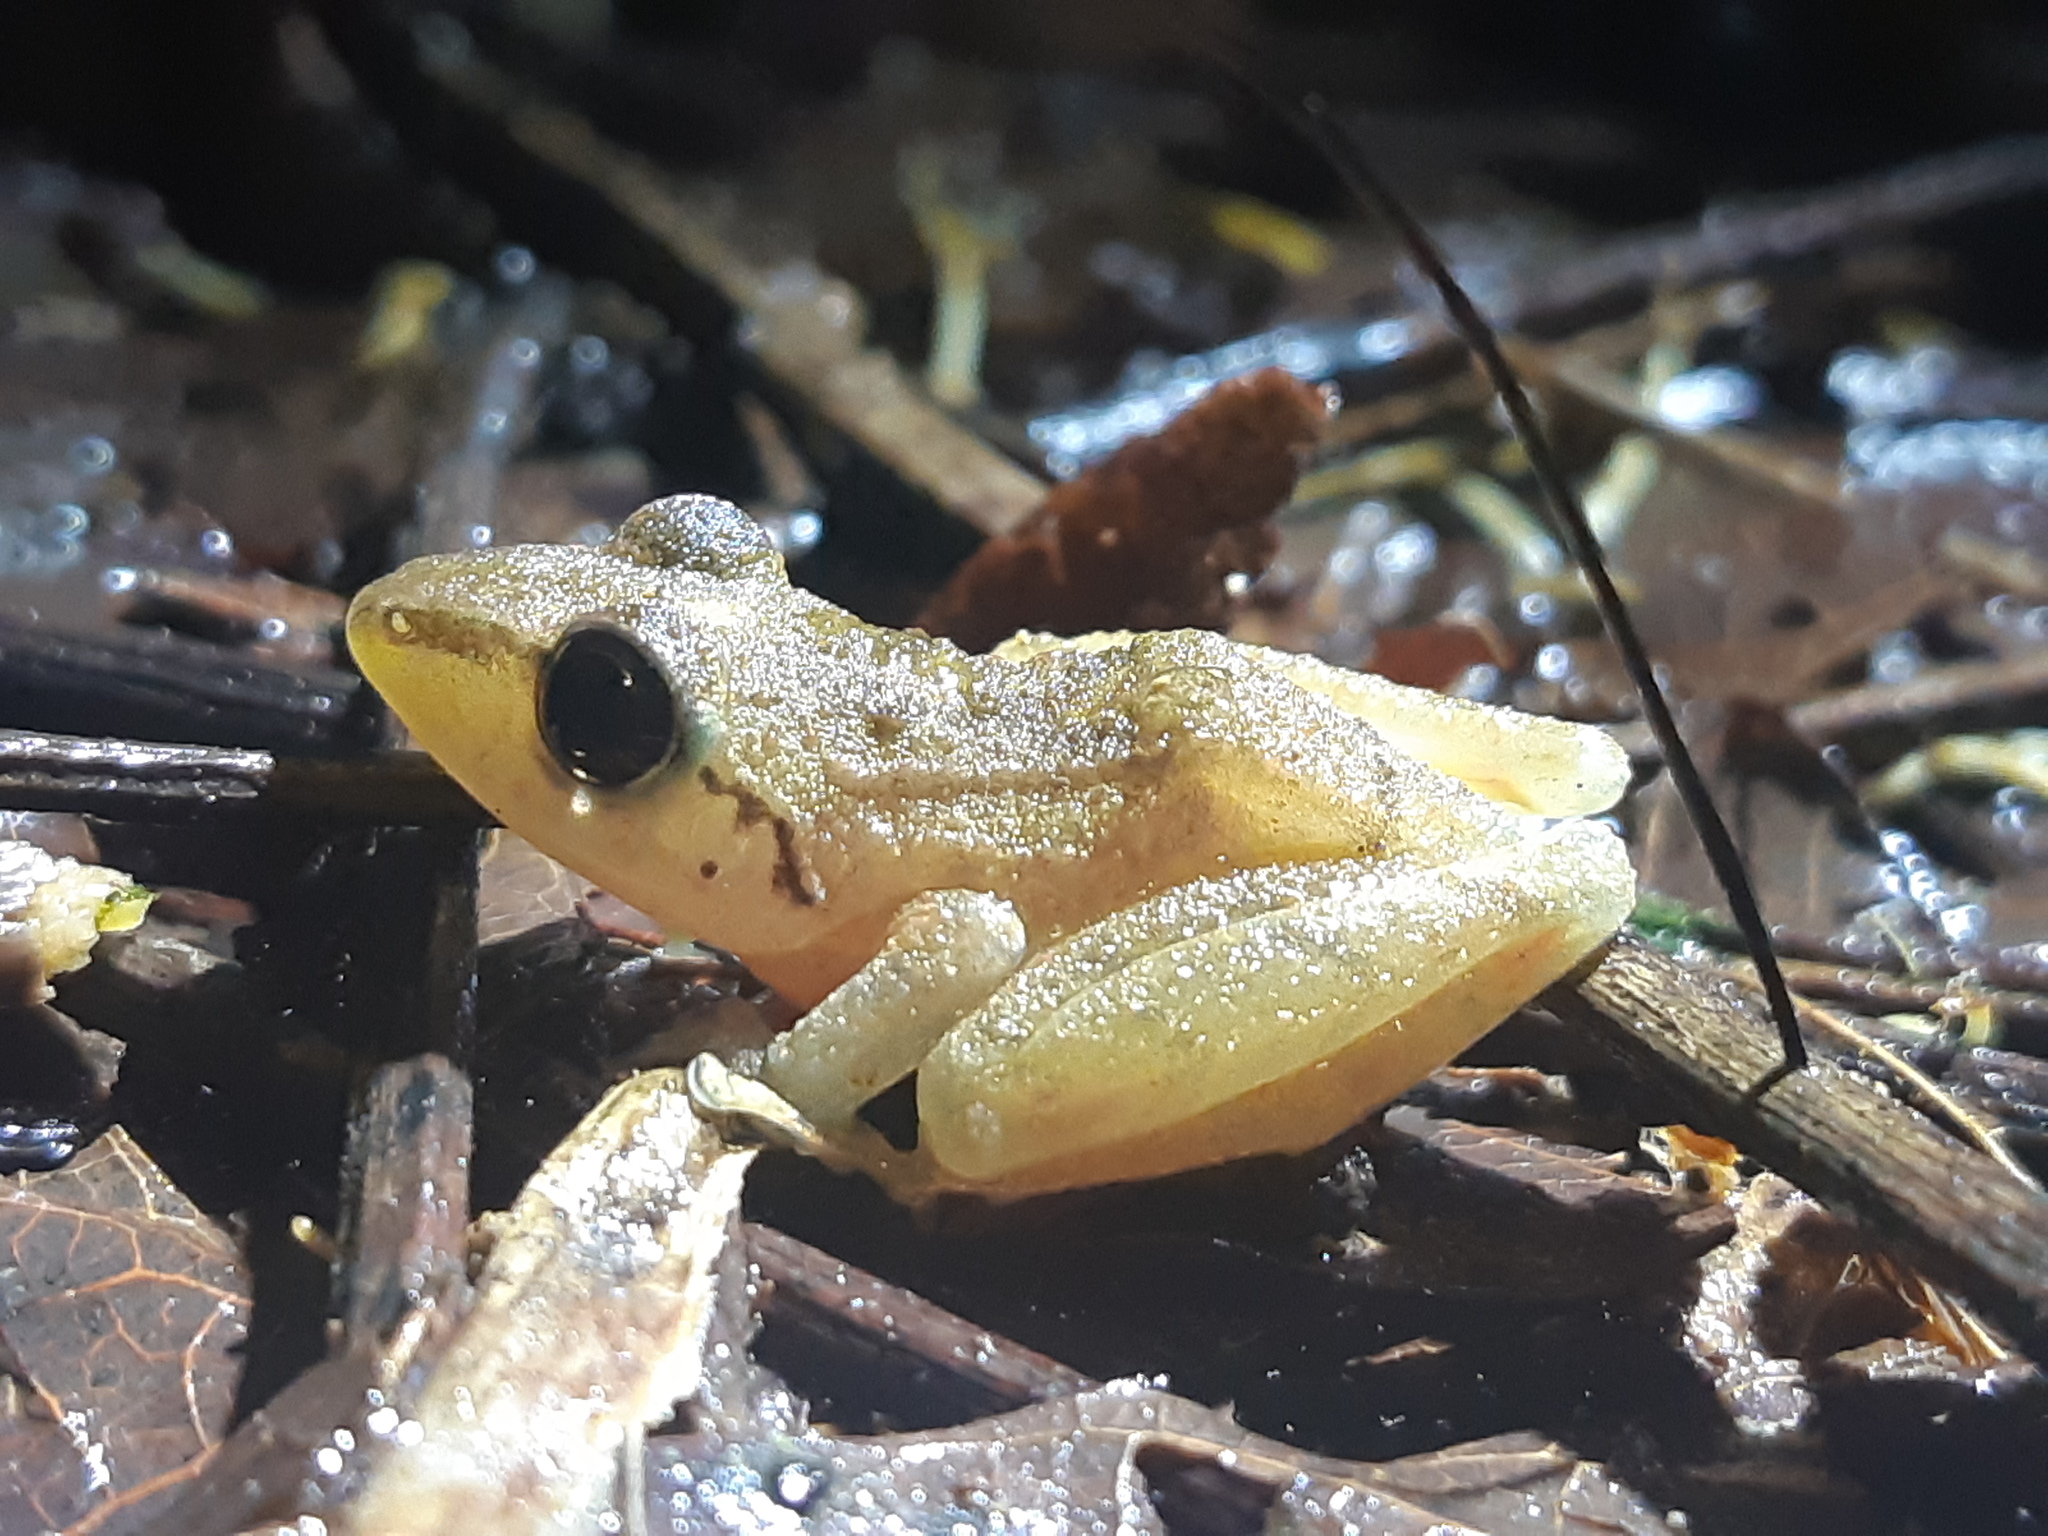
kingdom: Animalia
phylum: Chordata
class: Amphibia
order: Anura
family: Craugastoridae
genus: Pristimantis
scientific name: Pristimantis achatinus
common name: Cachabi robber frog
